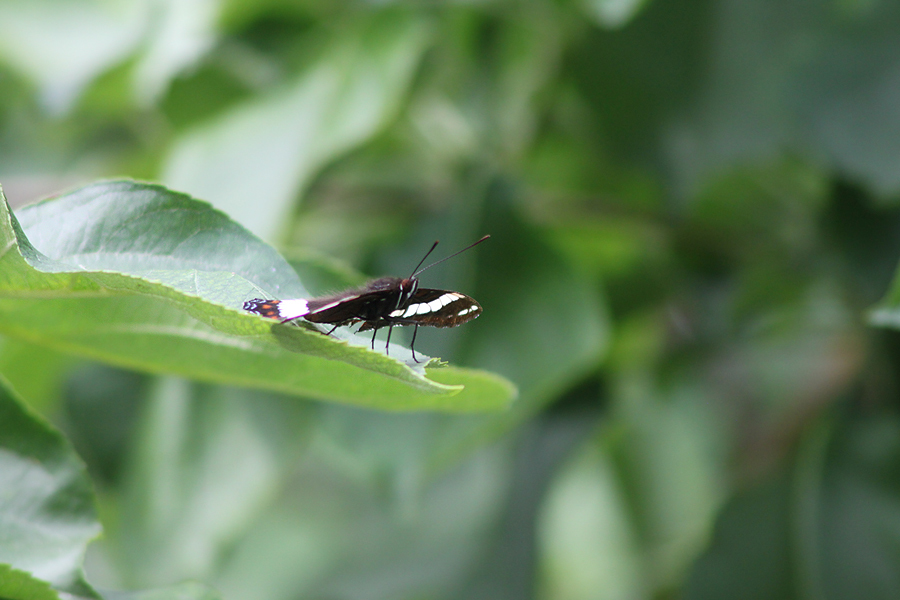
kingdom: Animalia
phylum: Arthropoda
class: Insecta
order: Lepidoptera
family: Nymphalidae
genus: Limenitis
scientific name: Limenitis arthemis
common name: Red-spotted admiral
